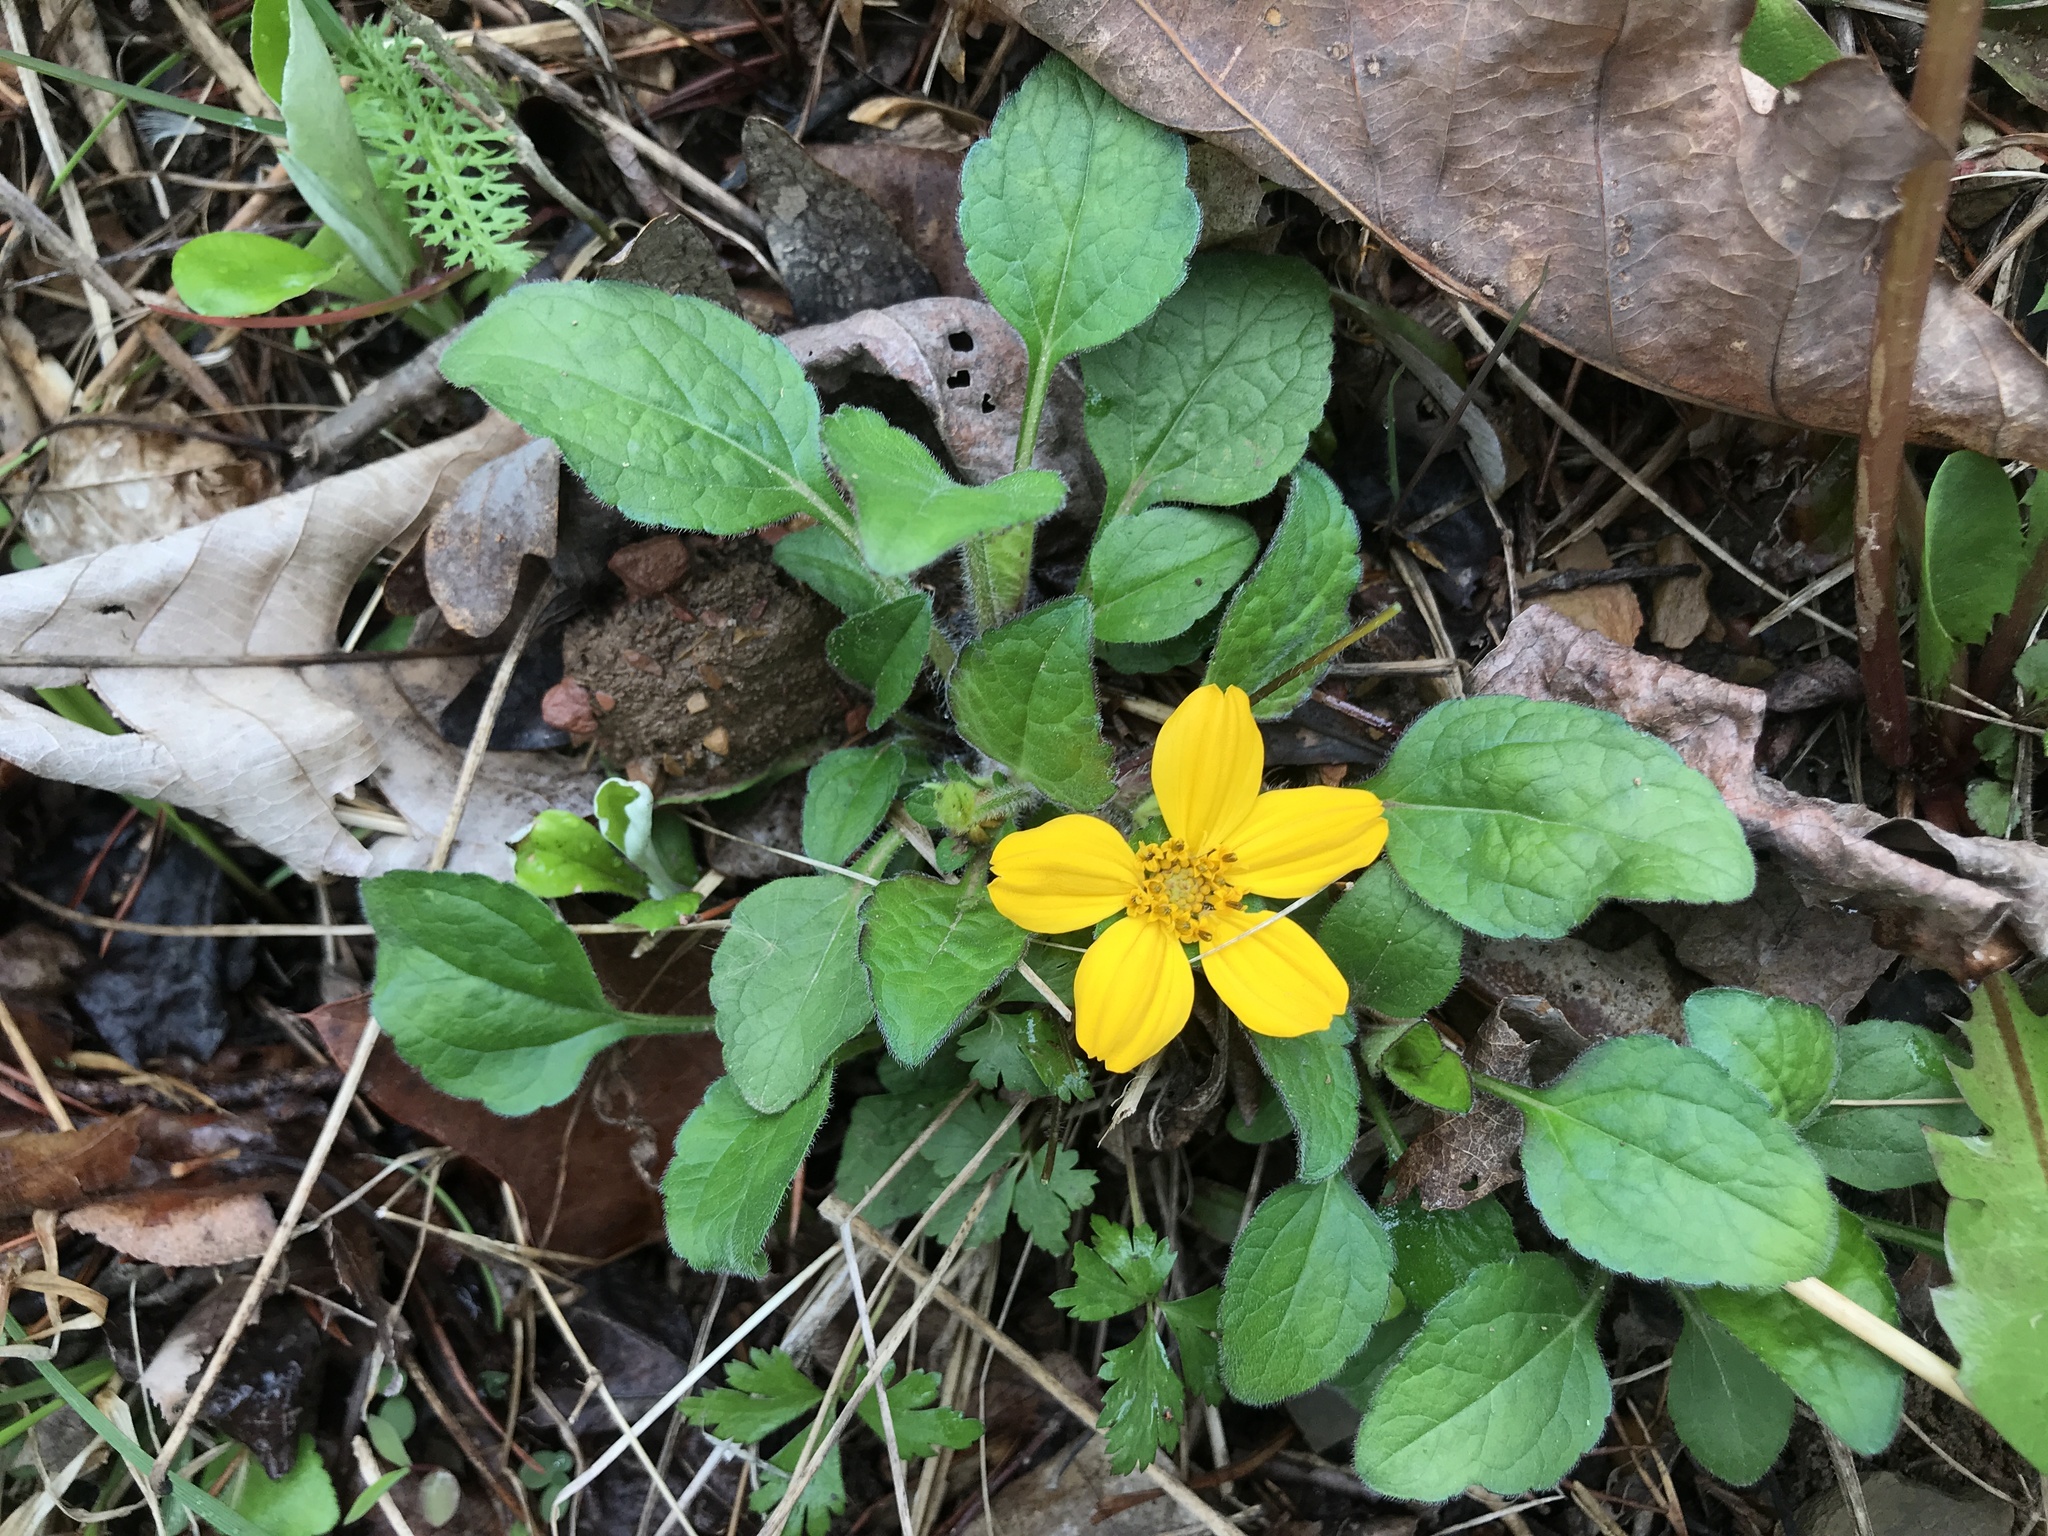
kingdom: Plantae
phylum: Tracheophyta
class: Magnoliopsida
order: Asterales
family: Asteraceae
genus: Chrysogonum
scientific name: Chrysogonum virginianum
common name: Golden-knee
